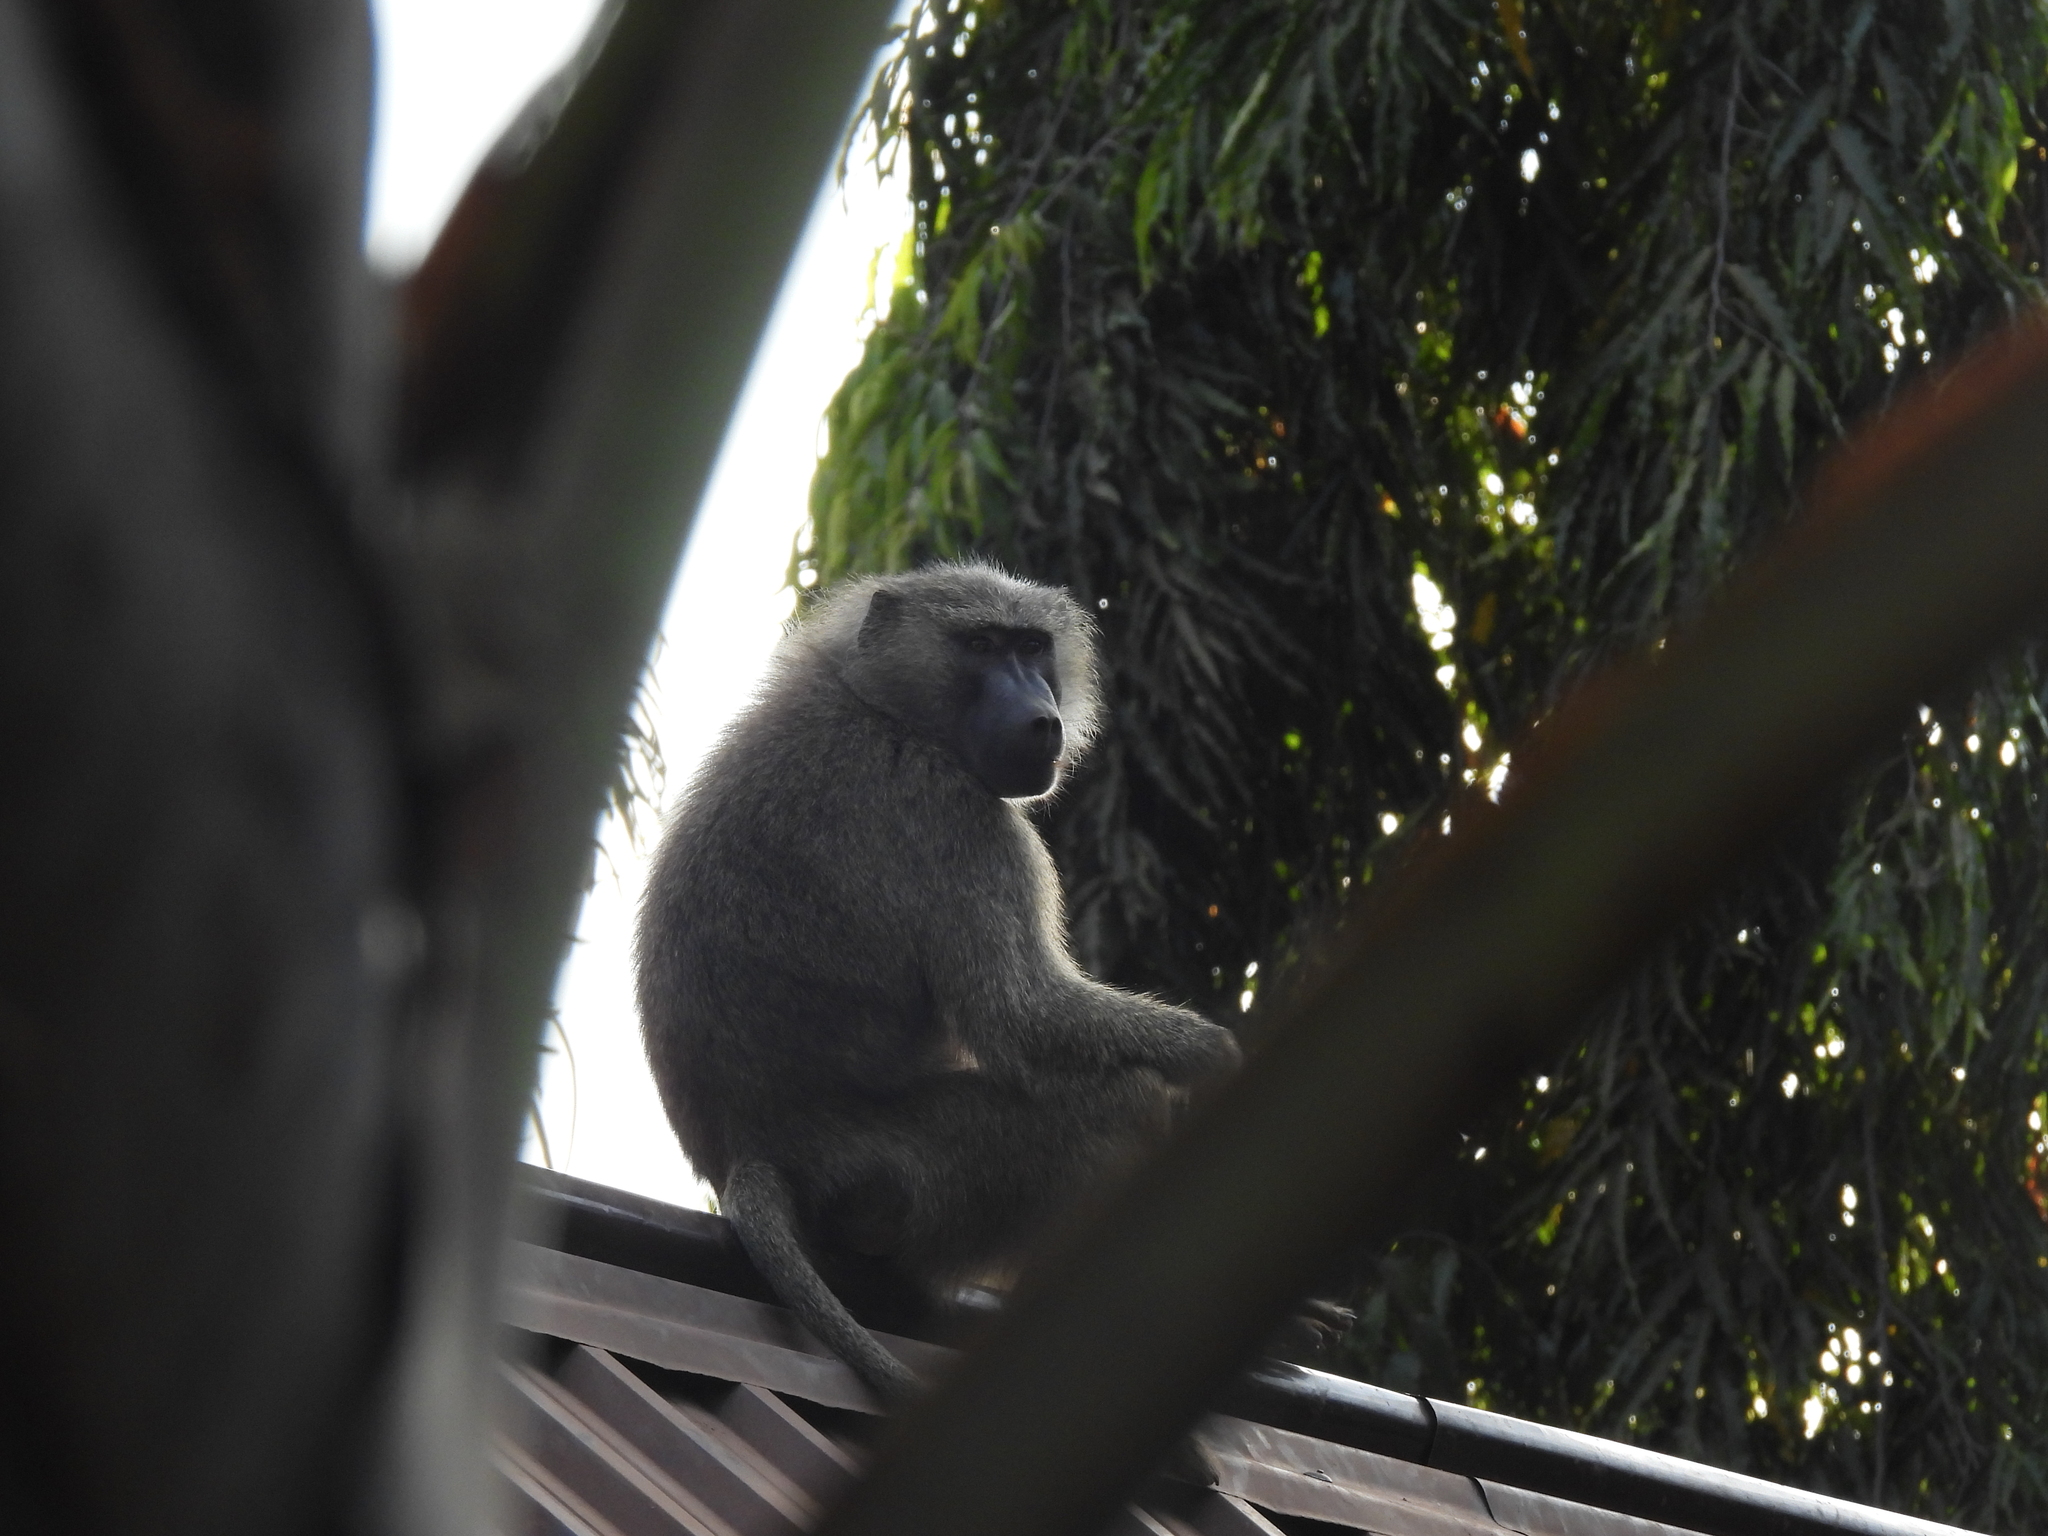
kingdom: Animalia
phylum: Chordata
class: Mammalia
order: Primates
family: Cercopithecidae
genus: Papio
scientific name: Papio anubis
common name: Olive baboon
